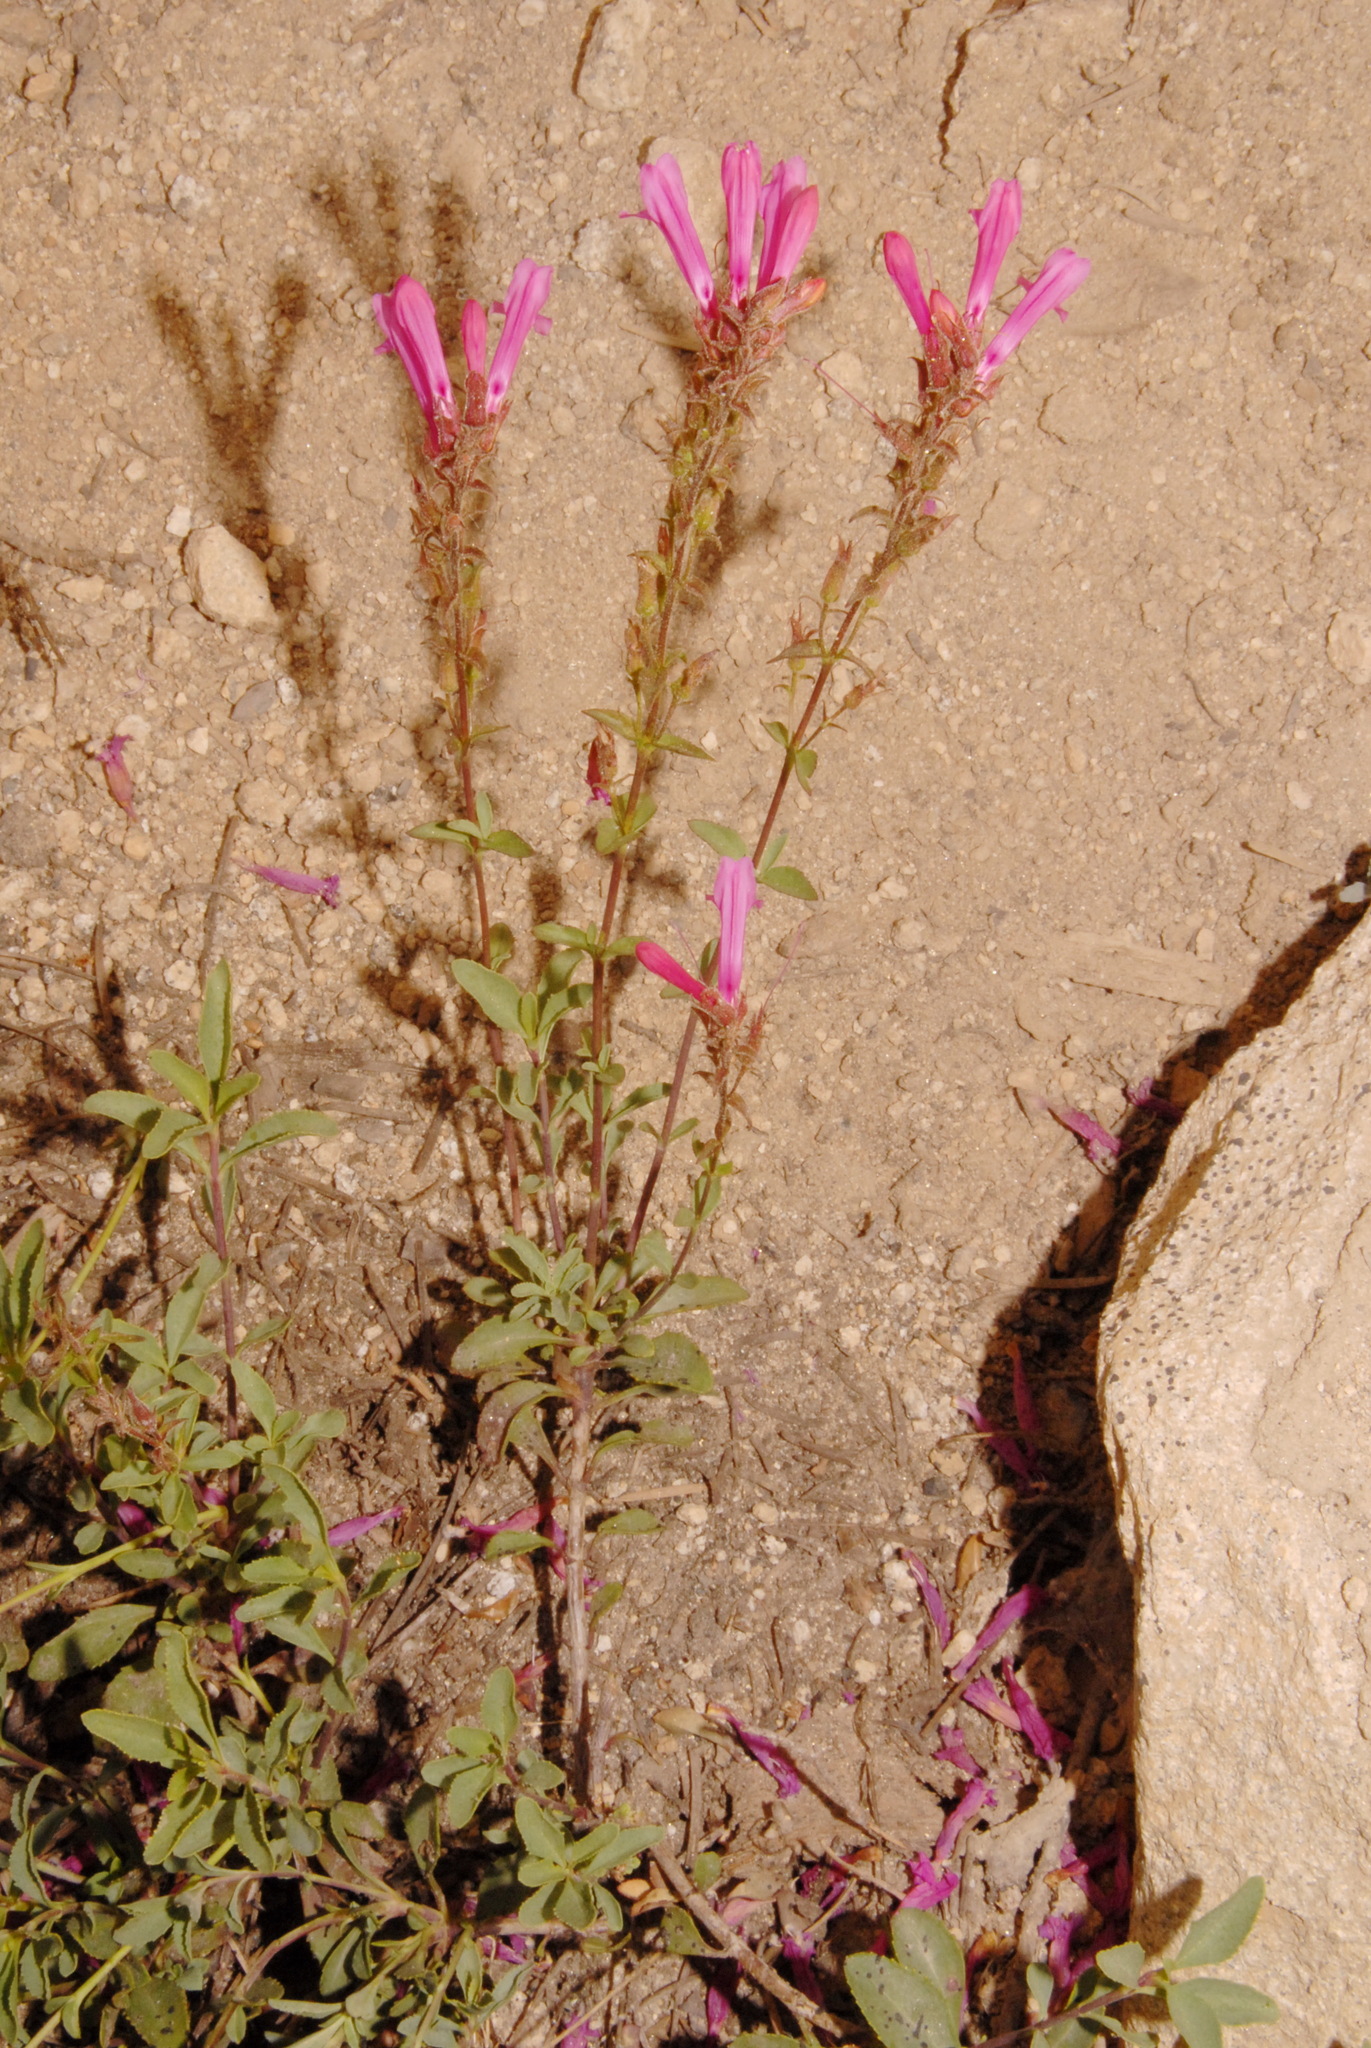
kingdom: Plantae
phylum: Tracheophyta
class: Magnoliopsida
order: Lamiales
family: Plantaginaceae
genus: Penstemon
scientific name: Penstemon newberryi
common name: Mountain-pride
